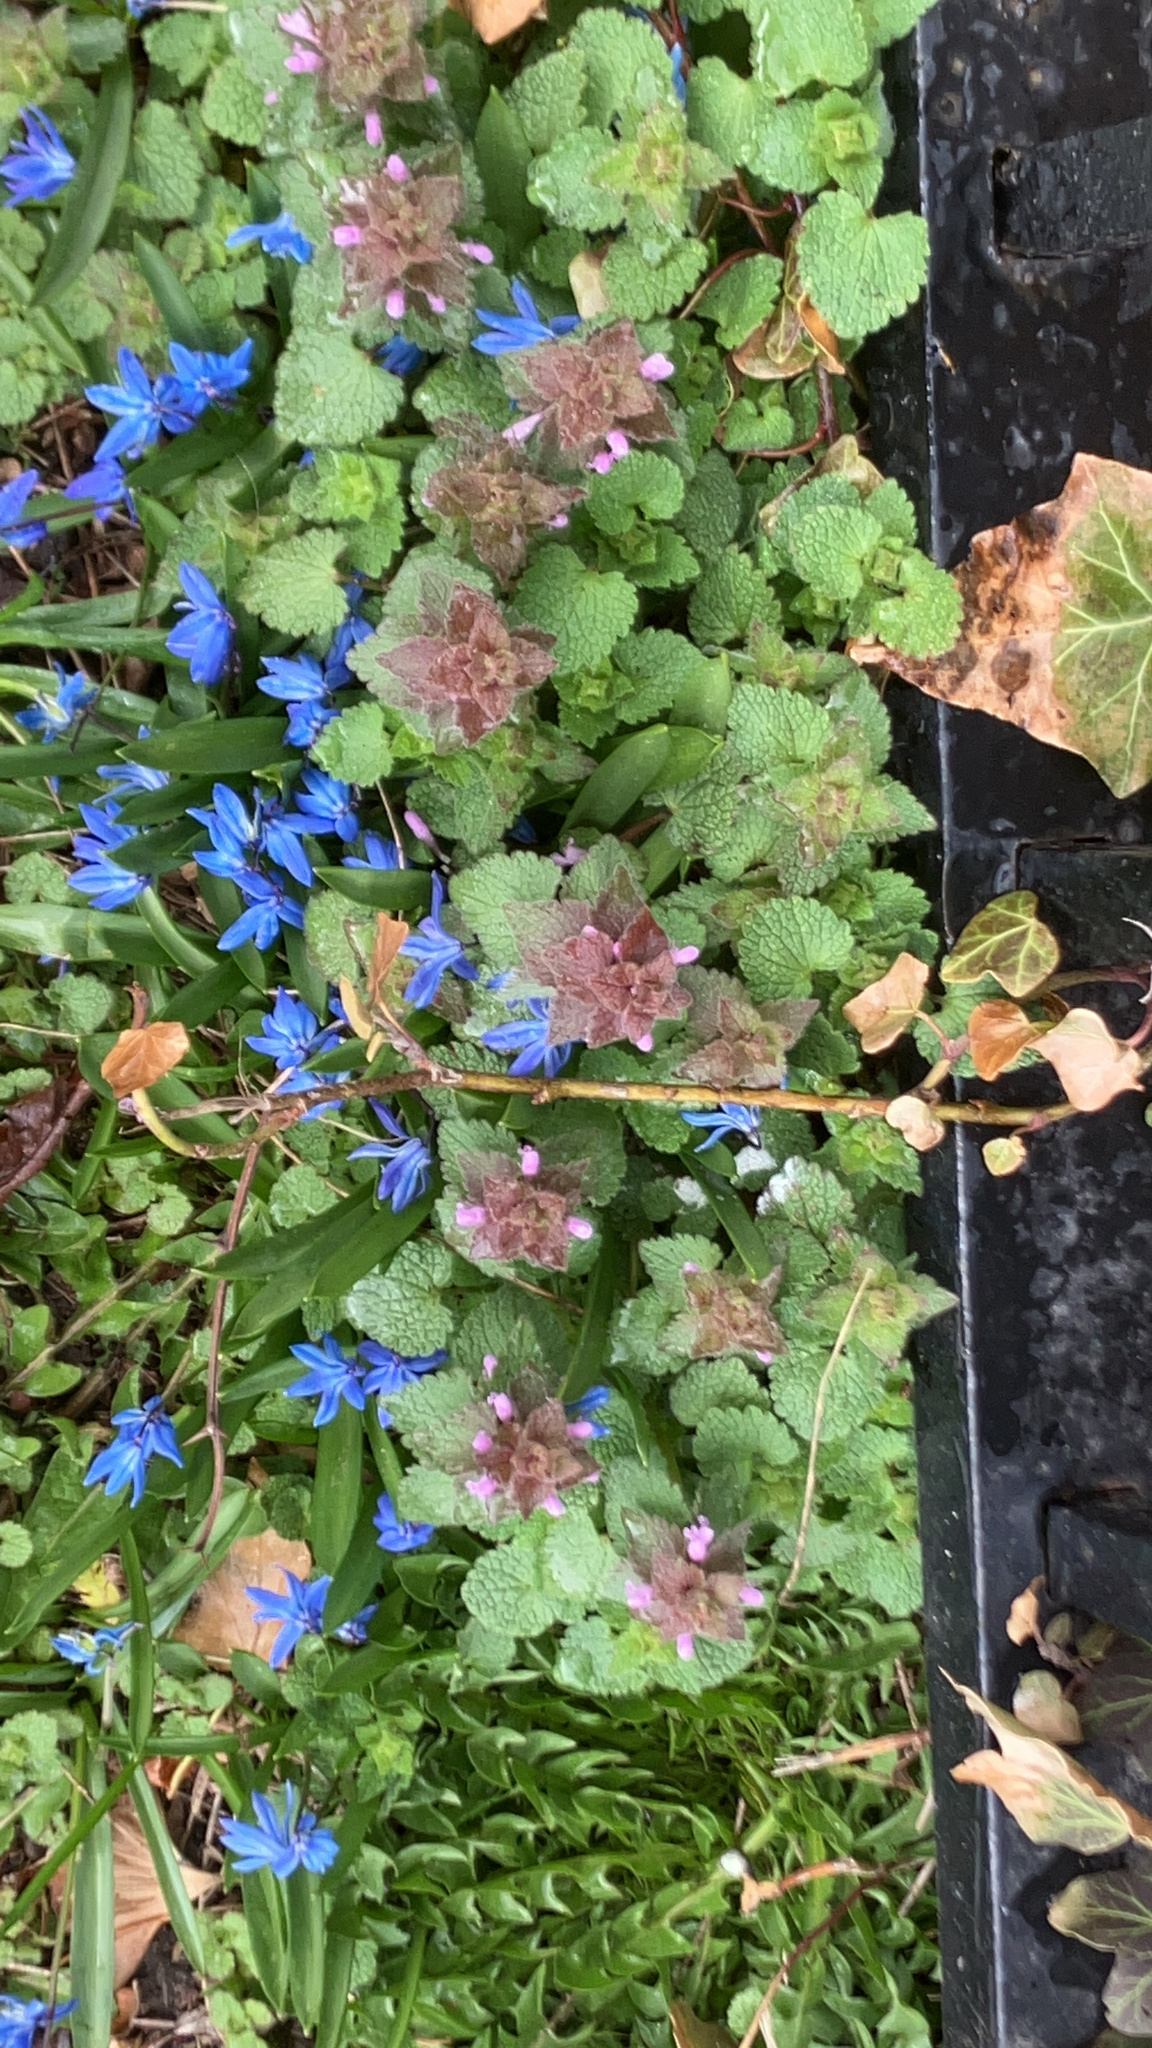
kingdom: Plantae
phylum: Tracheophyta
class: Magnoliopsida
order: Lamiales
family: Lamiaceae
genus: Lamium
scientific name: Lamium purpureum
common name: Red dead-nettle
